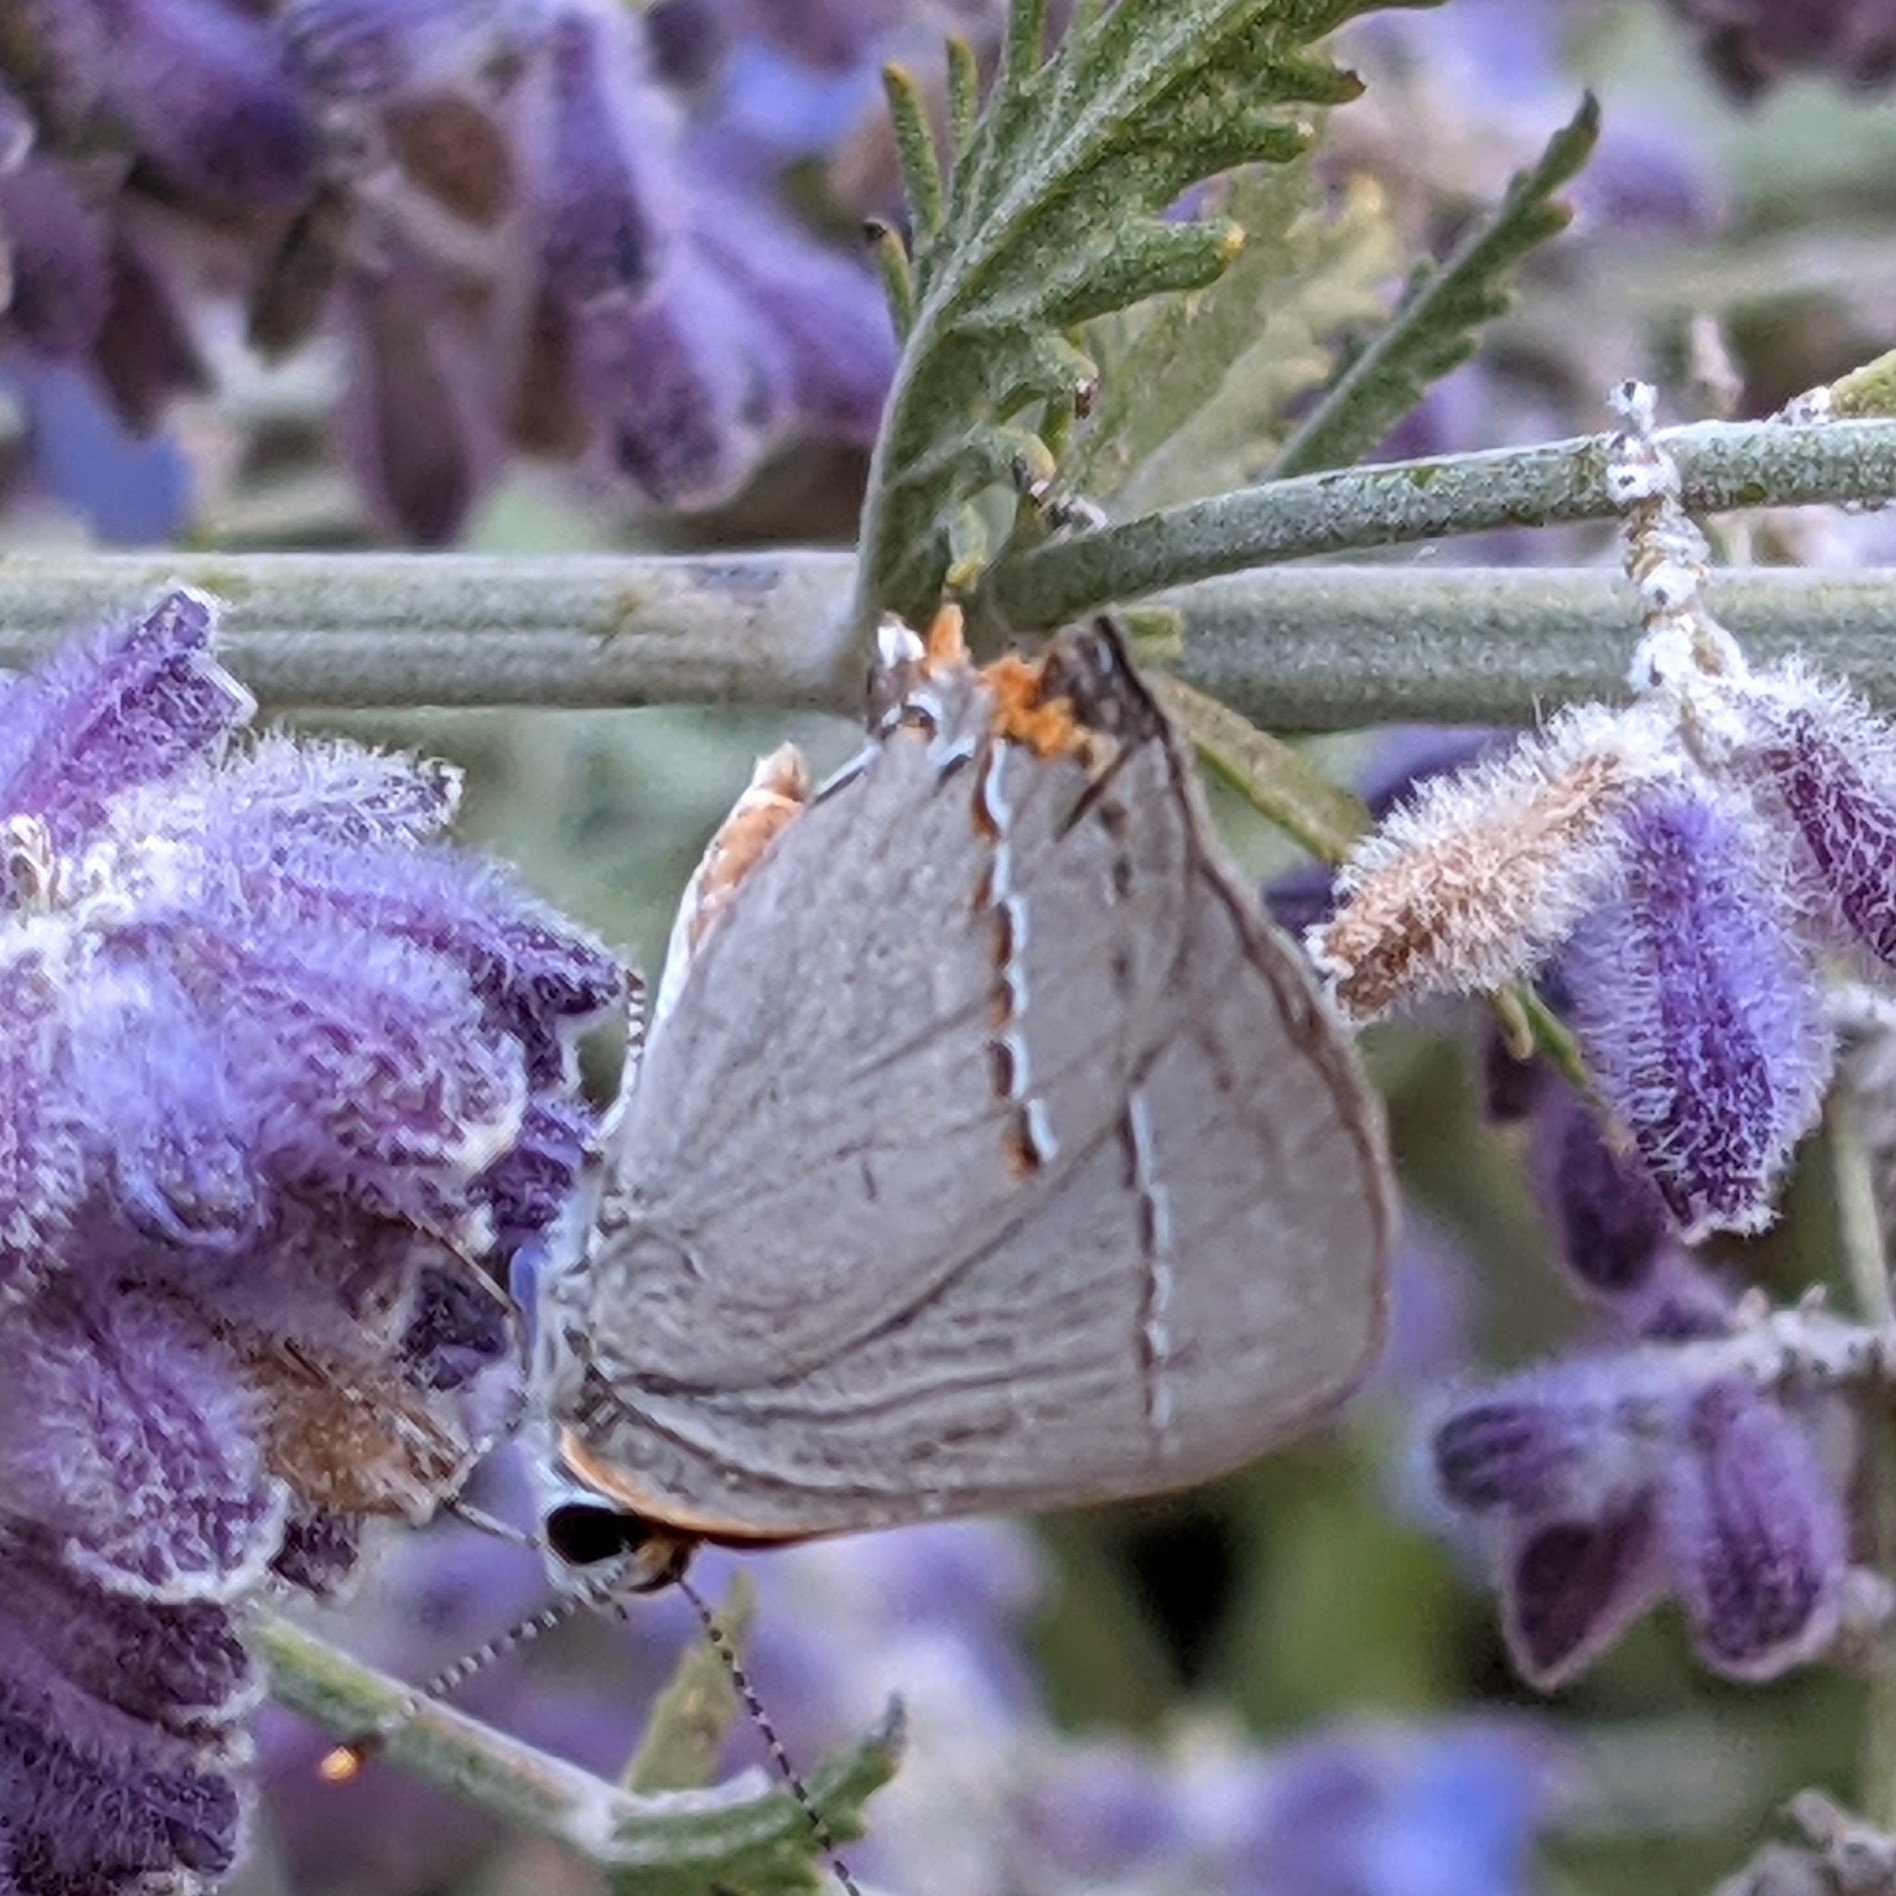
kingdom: Animalia
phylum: Arthropoda
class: Insecta
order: Lepidoptera
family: Lycaenidae
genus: Strymon
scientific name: Strymon melinus
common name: Gray hairstreak
